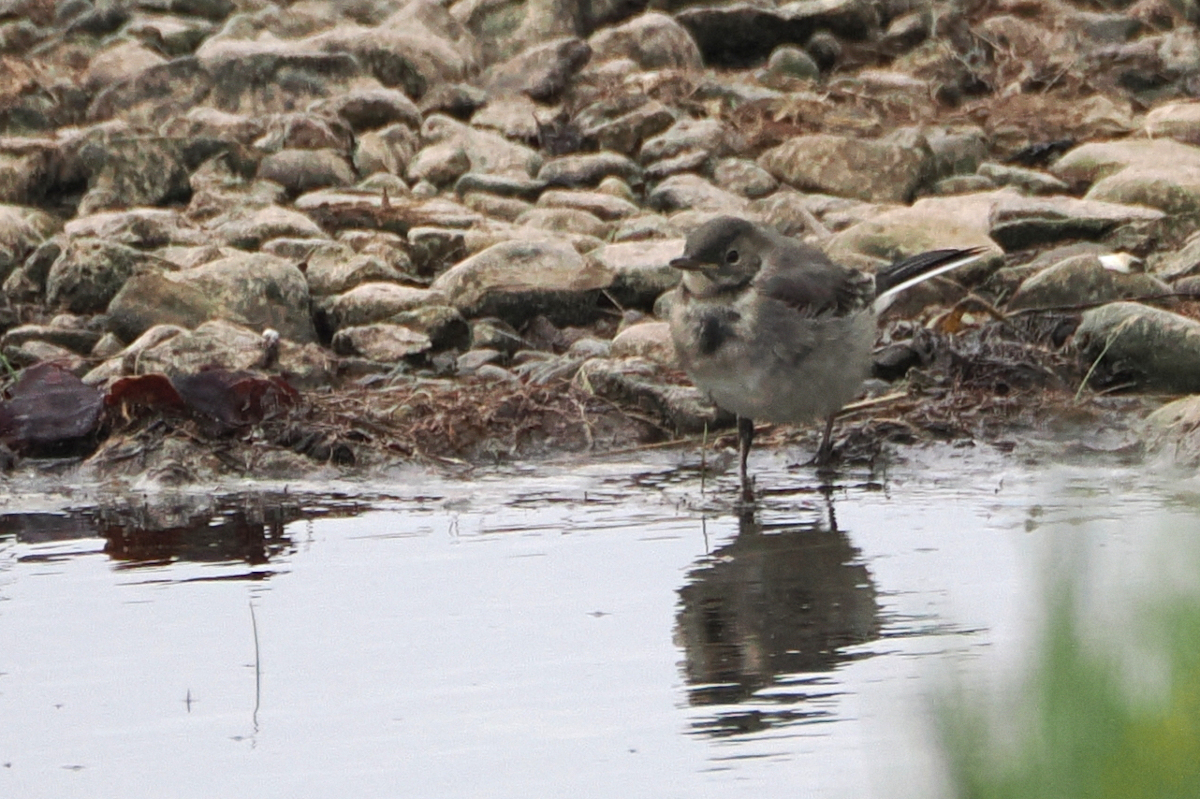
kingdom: Animalia
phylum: Chordata
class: Aves
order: Passeriformes
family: Motacillidae
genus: Motacilla
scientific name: Motacilla alba
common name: White wagtail
